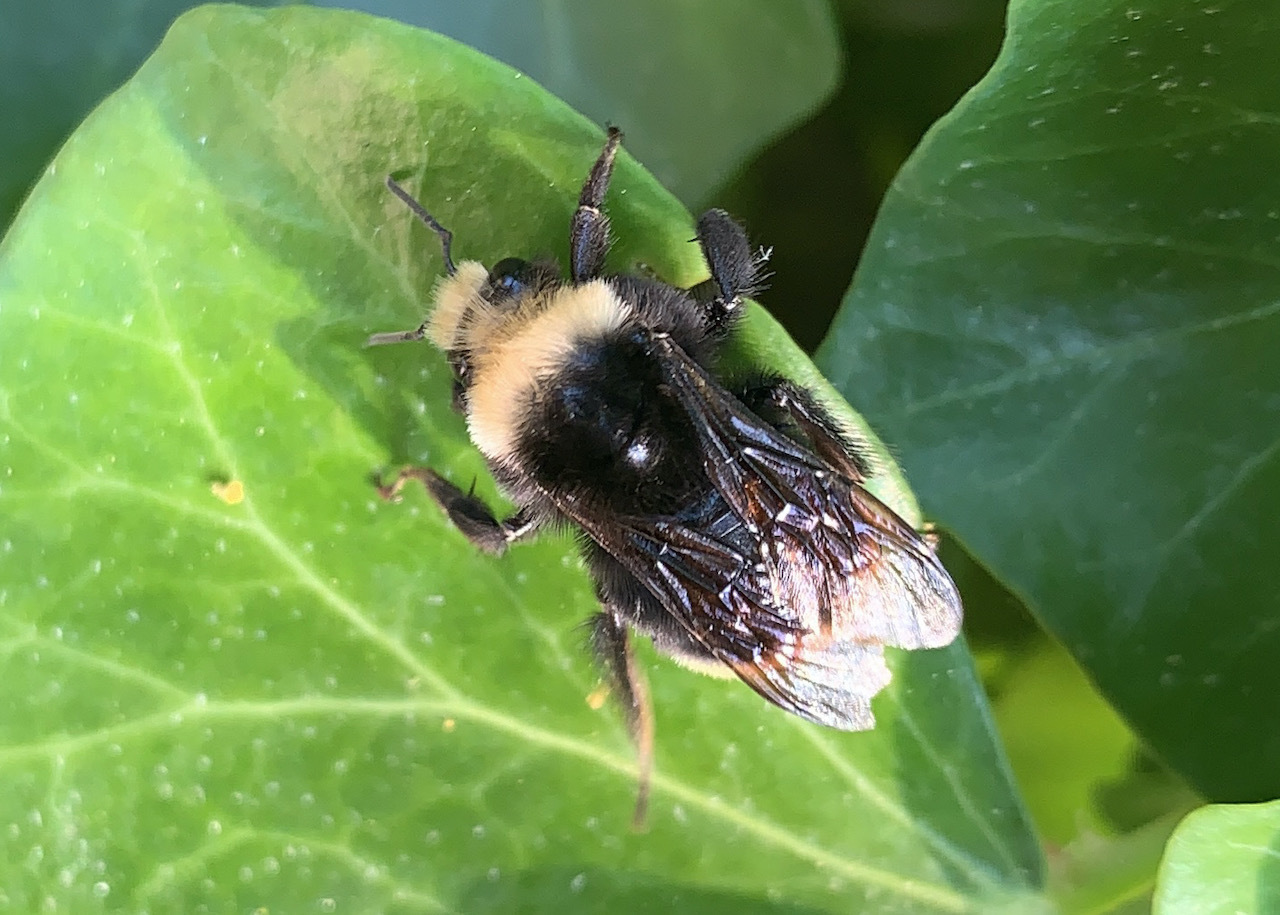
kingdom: Animalia
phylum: Arthropoda
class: Insecta
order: Hymenoptera
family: Apidae
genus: Pyrobombus
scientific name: Pyrobombus
